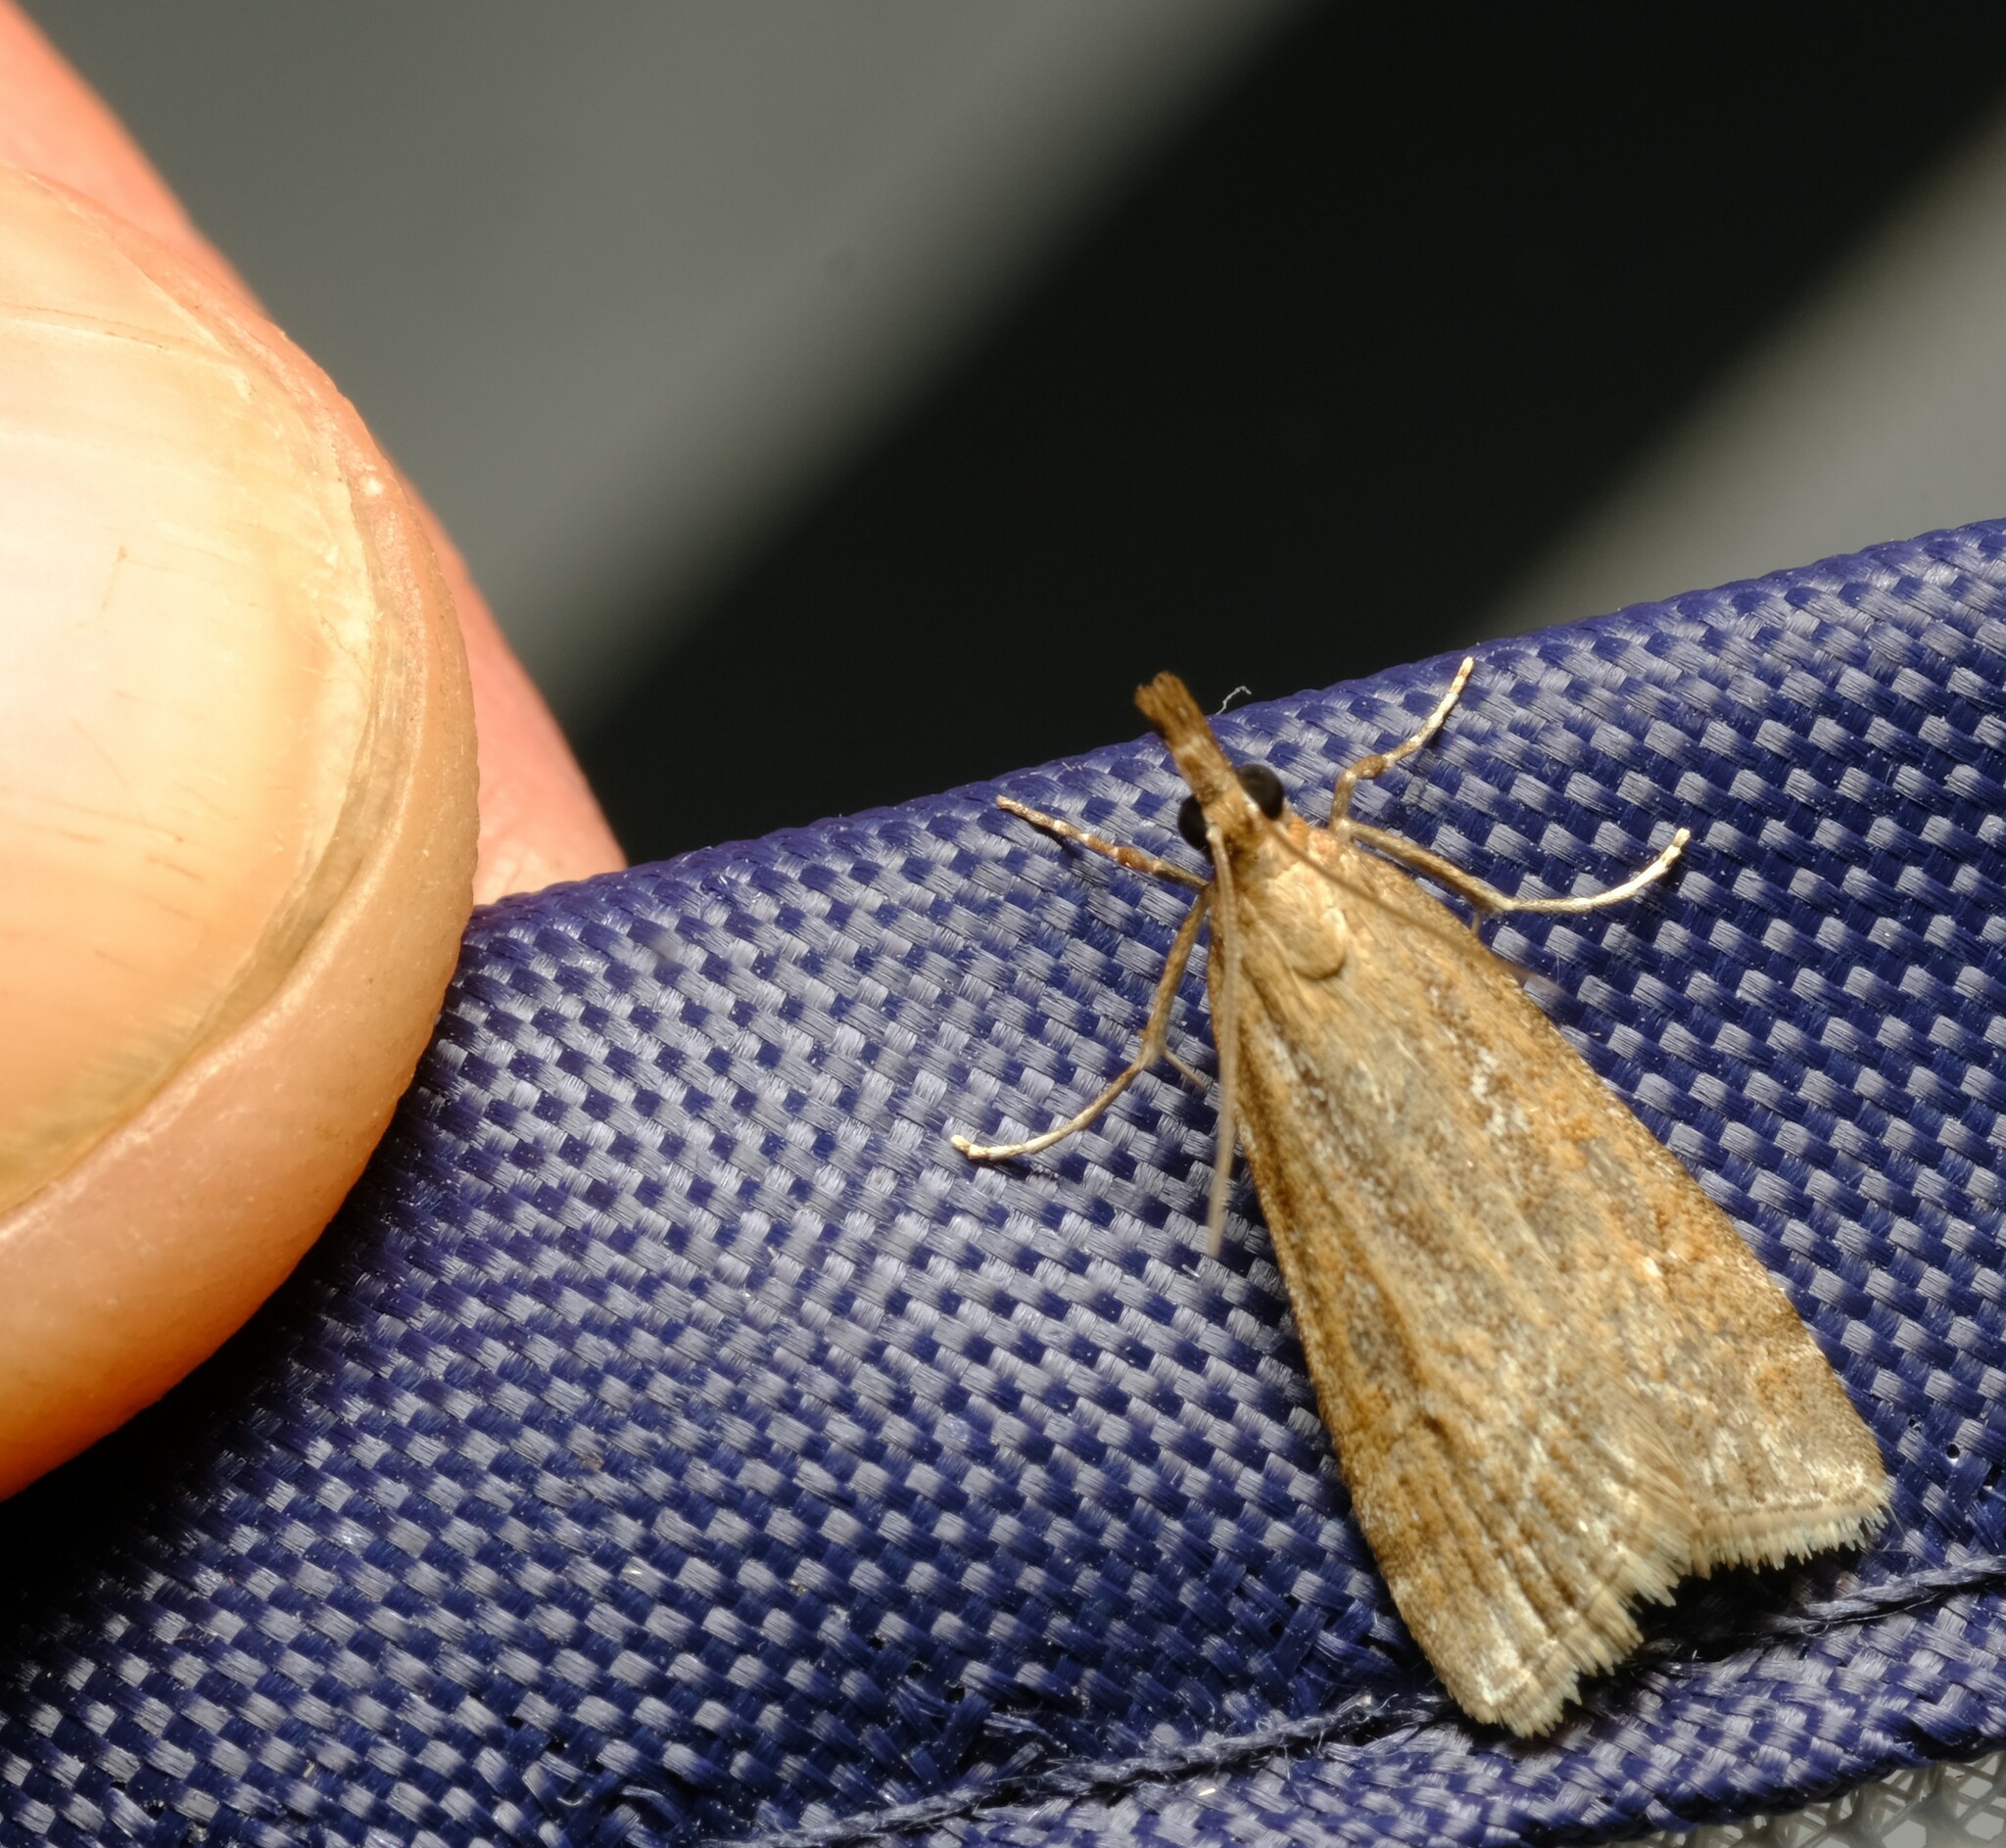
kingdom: Animalia
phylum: Arthropoda
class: Insecta
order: Lepidoptera
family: Crambidae
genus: Eudonia
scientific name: Eudonia cleodoralis
